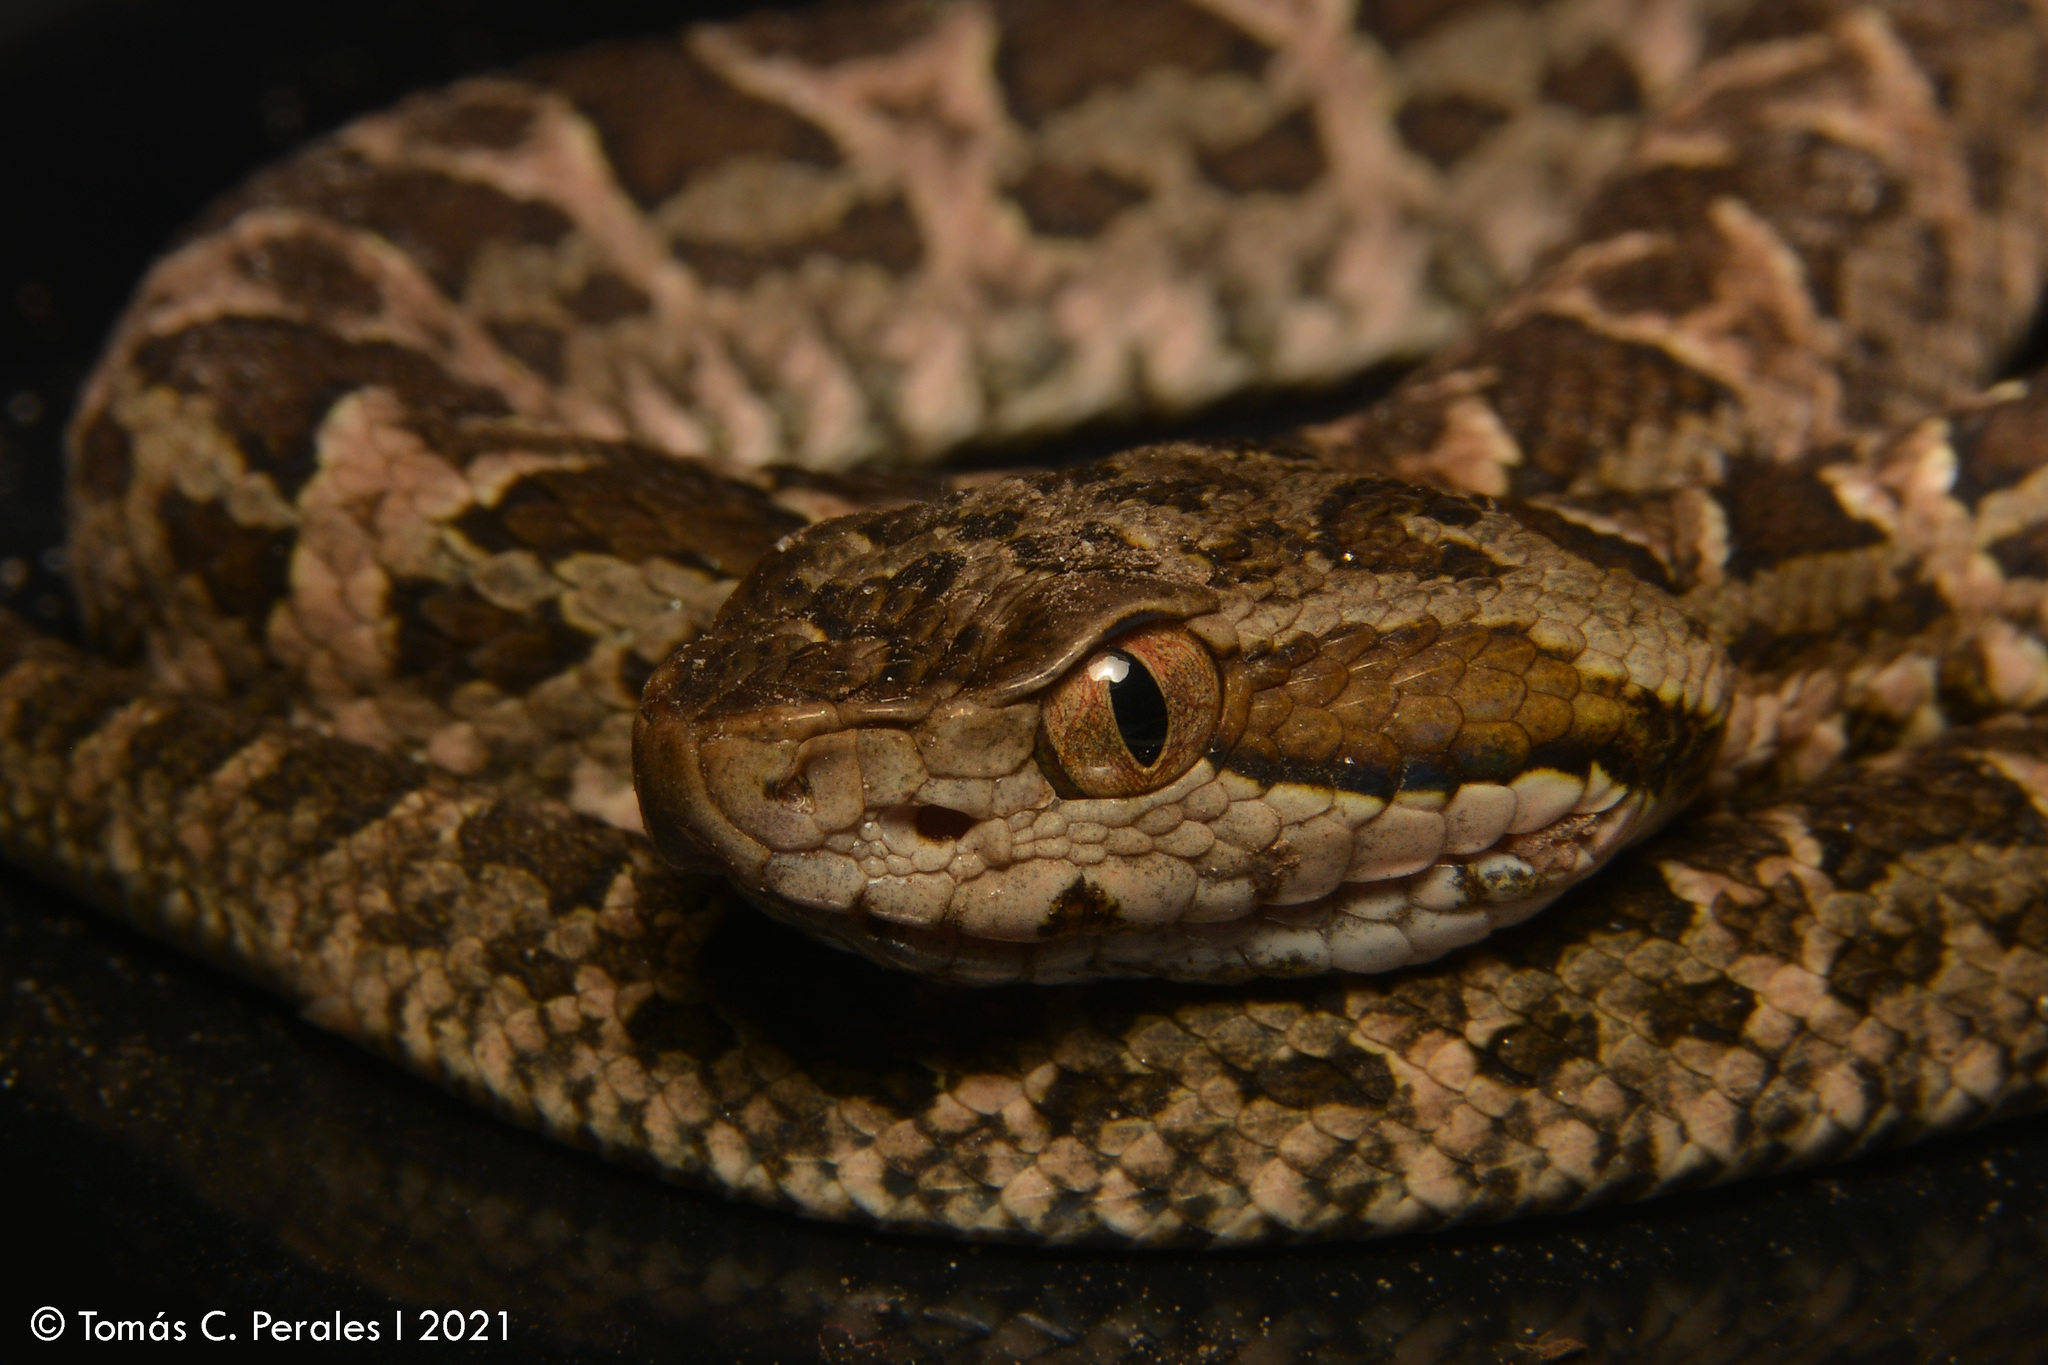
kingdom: Animalia
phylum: Chordata
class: Squamata
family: Viperidae
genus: Bothrops
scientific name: Bothrops diporus
